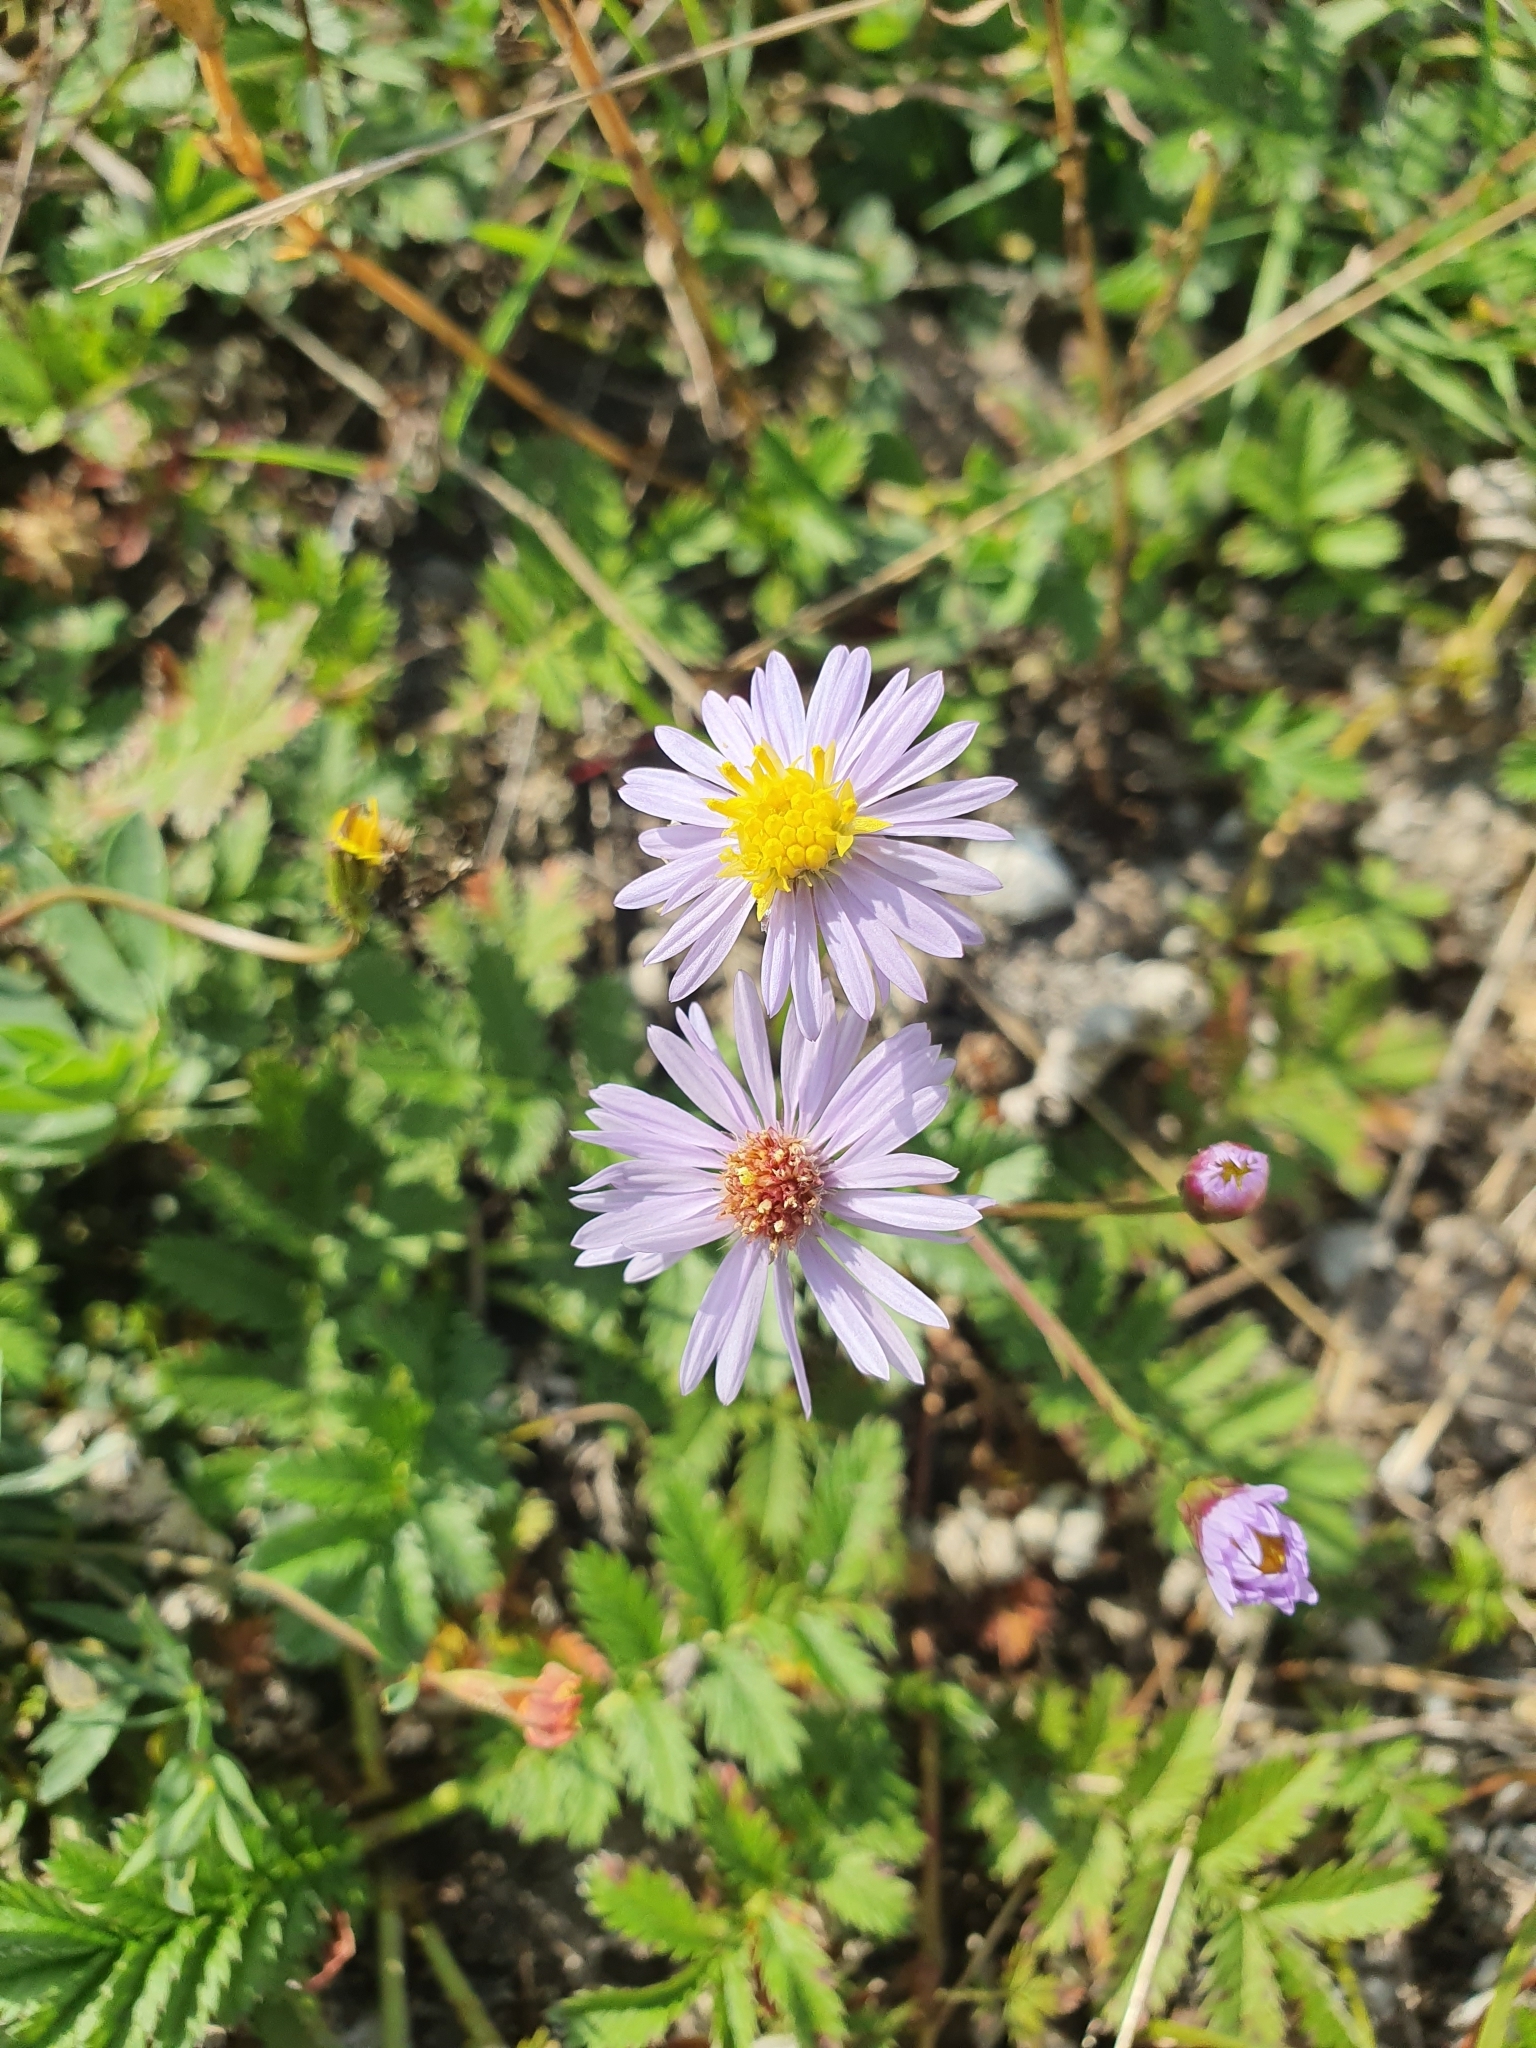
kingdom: Plantae
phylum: Tracheophyta
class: Magnoliopsida
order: Asterales
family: Asteraceae
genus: Tripolium
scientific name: Tripolium pannonicum
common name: Sea aster
